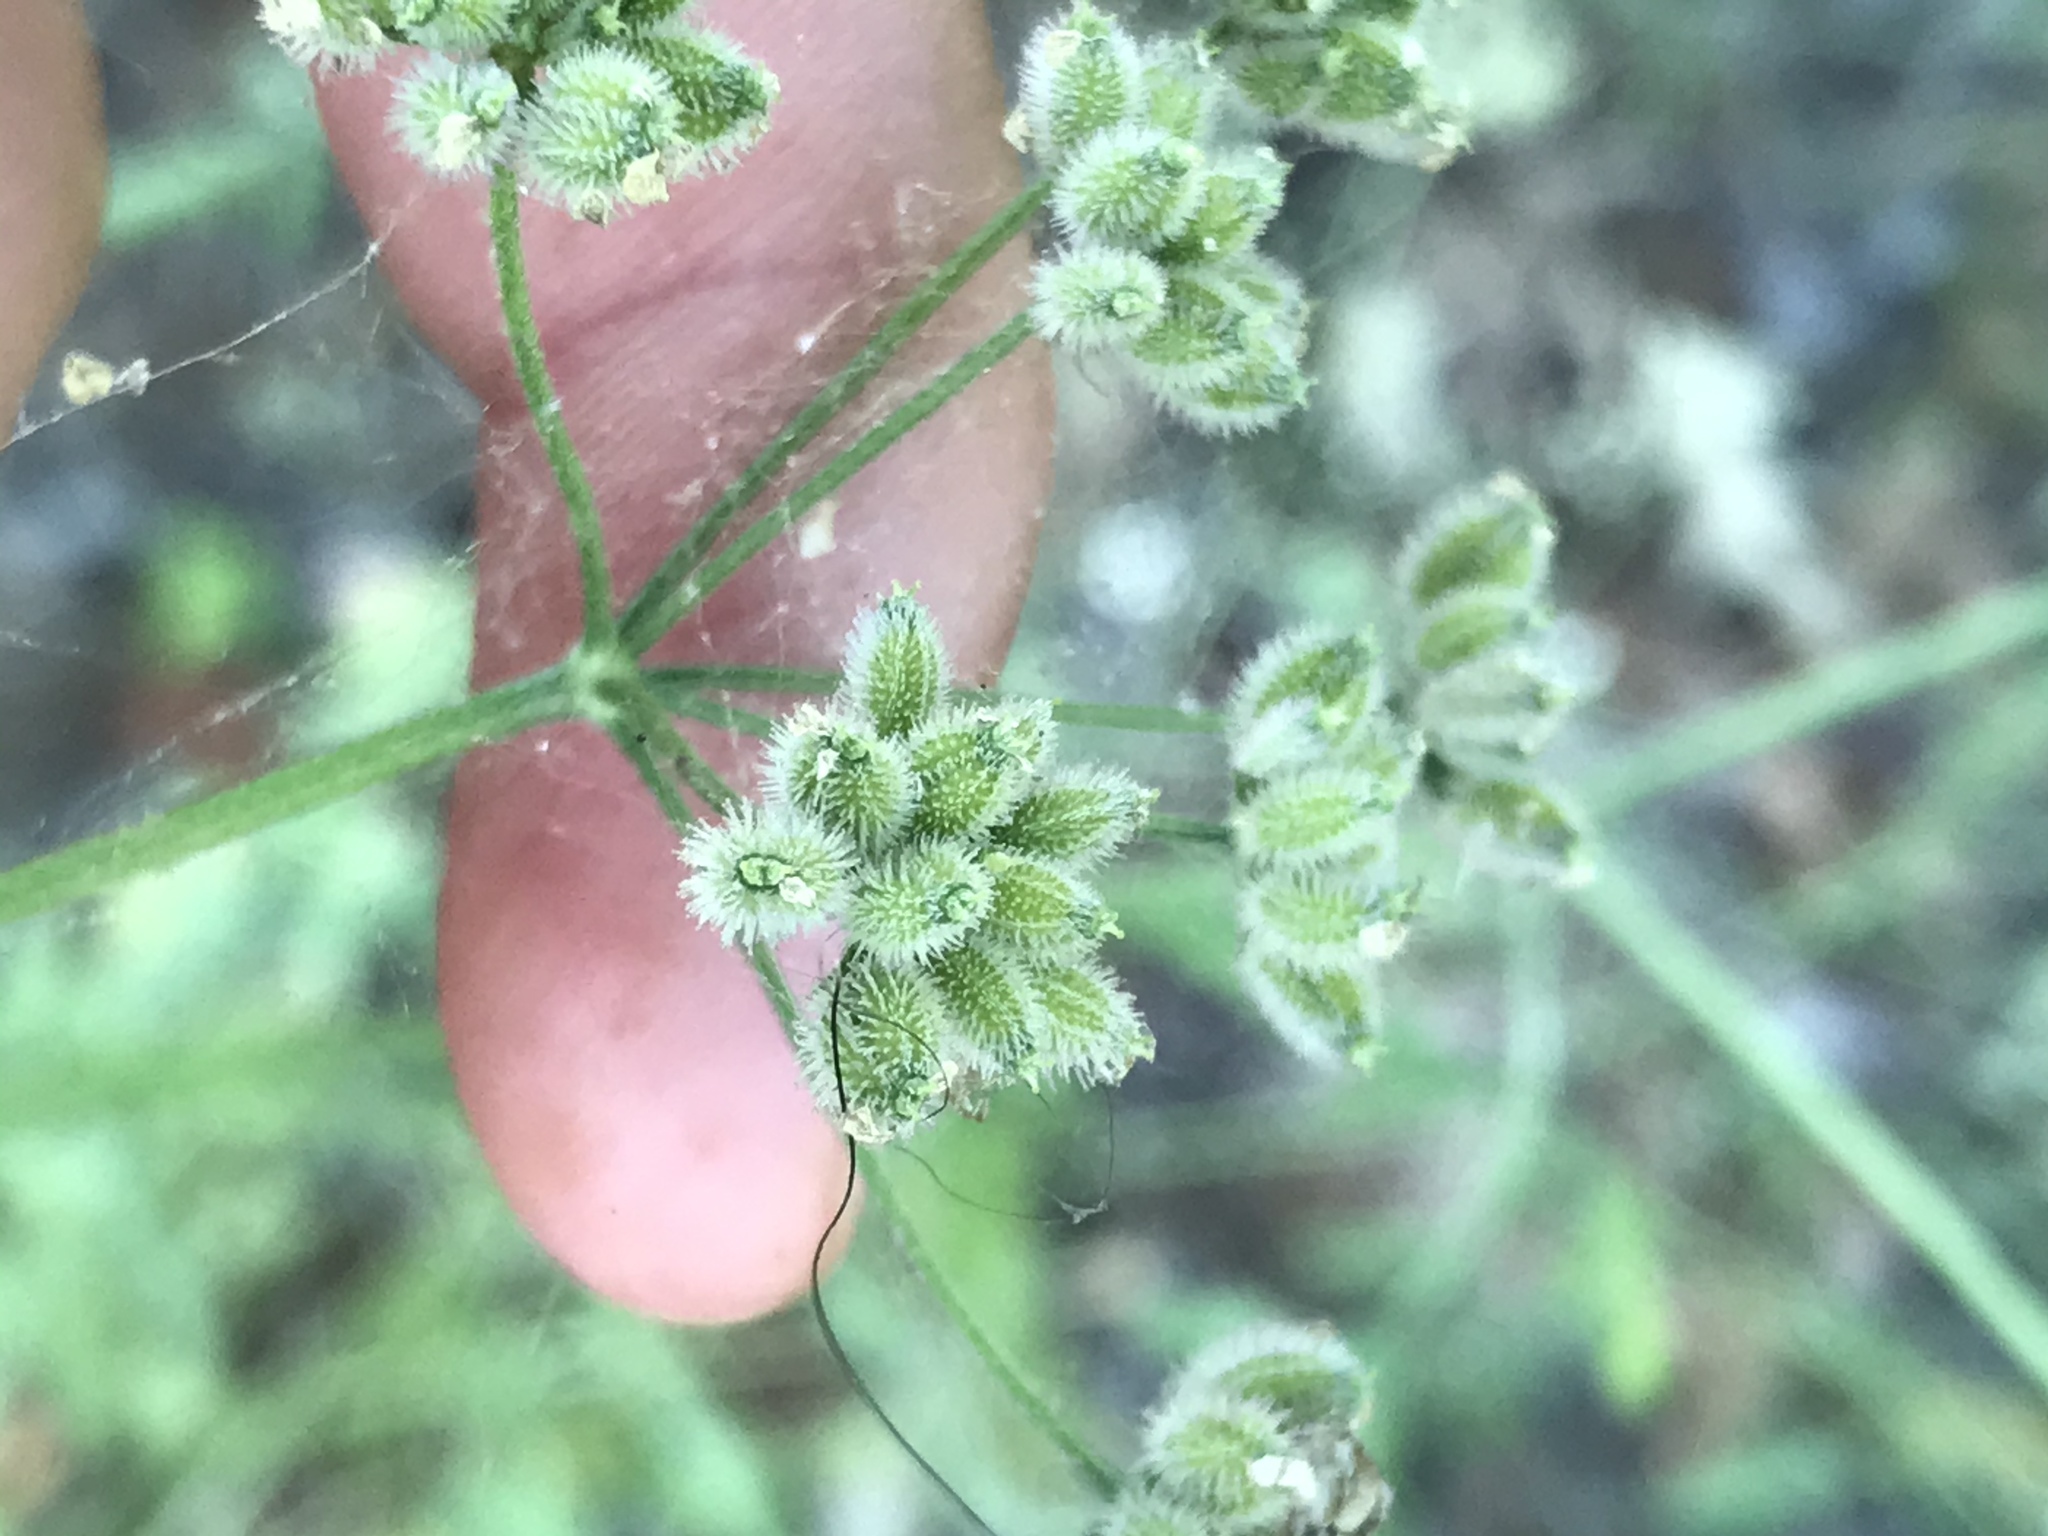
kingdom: Plantae
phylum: Tracheophyta
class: Magnoliopsida
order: Apiales
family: Apiaceae
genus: Torilis
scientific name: Torilis arvensis
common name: Spreading hedge-parsley
